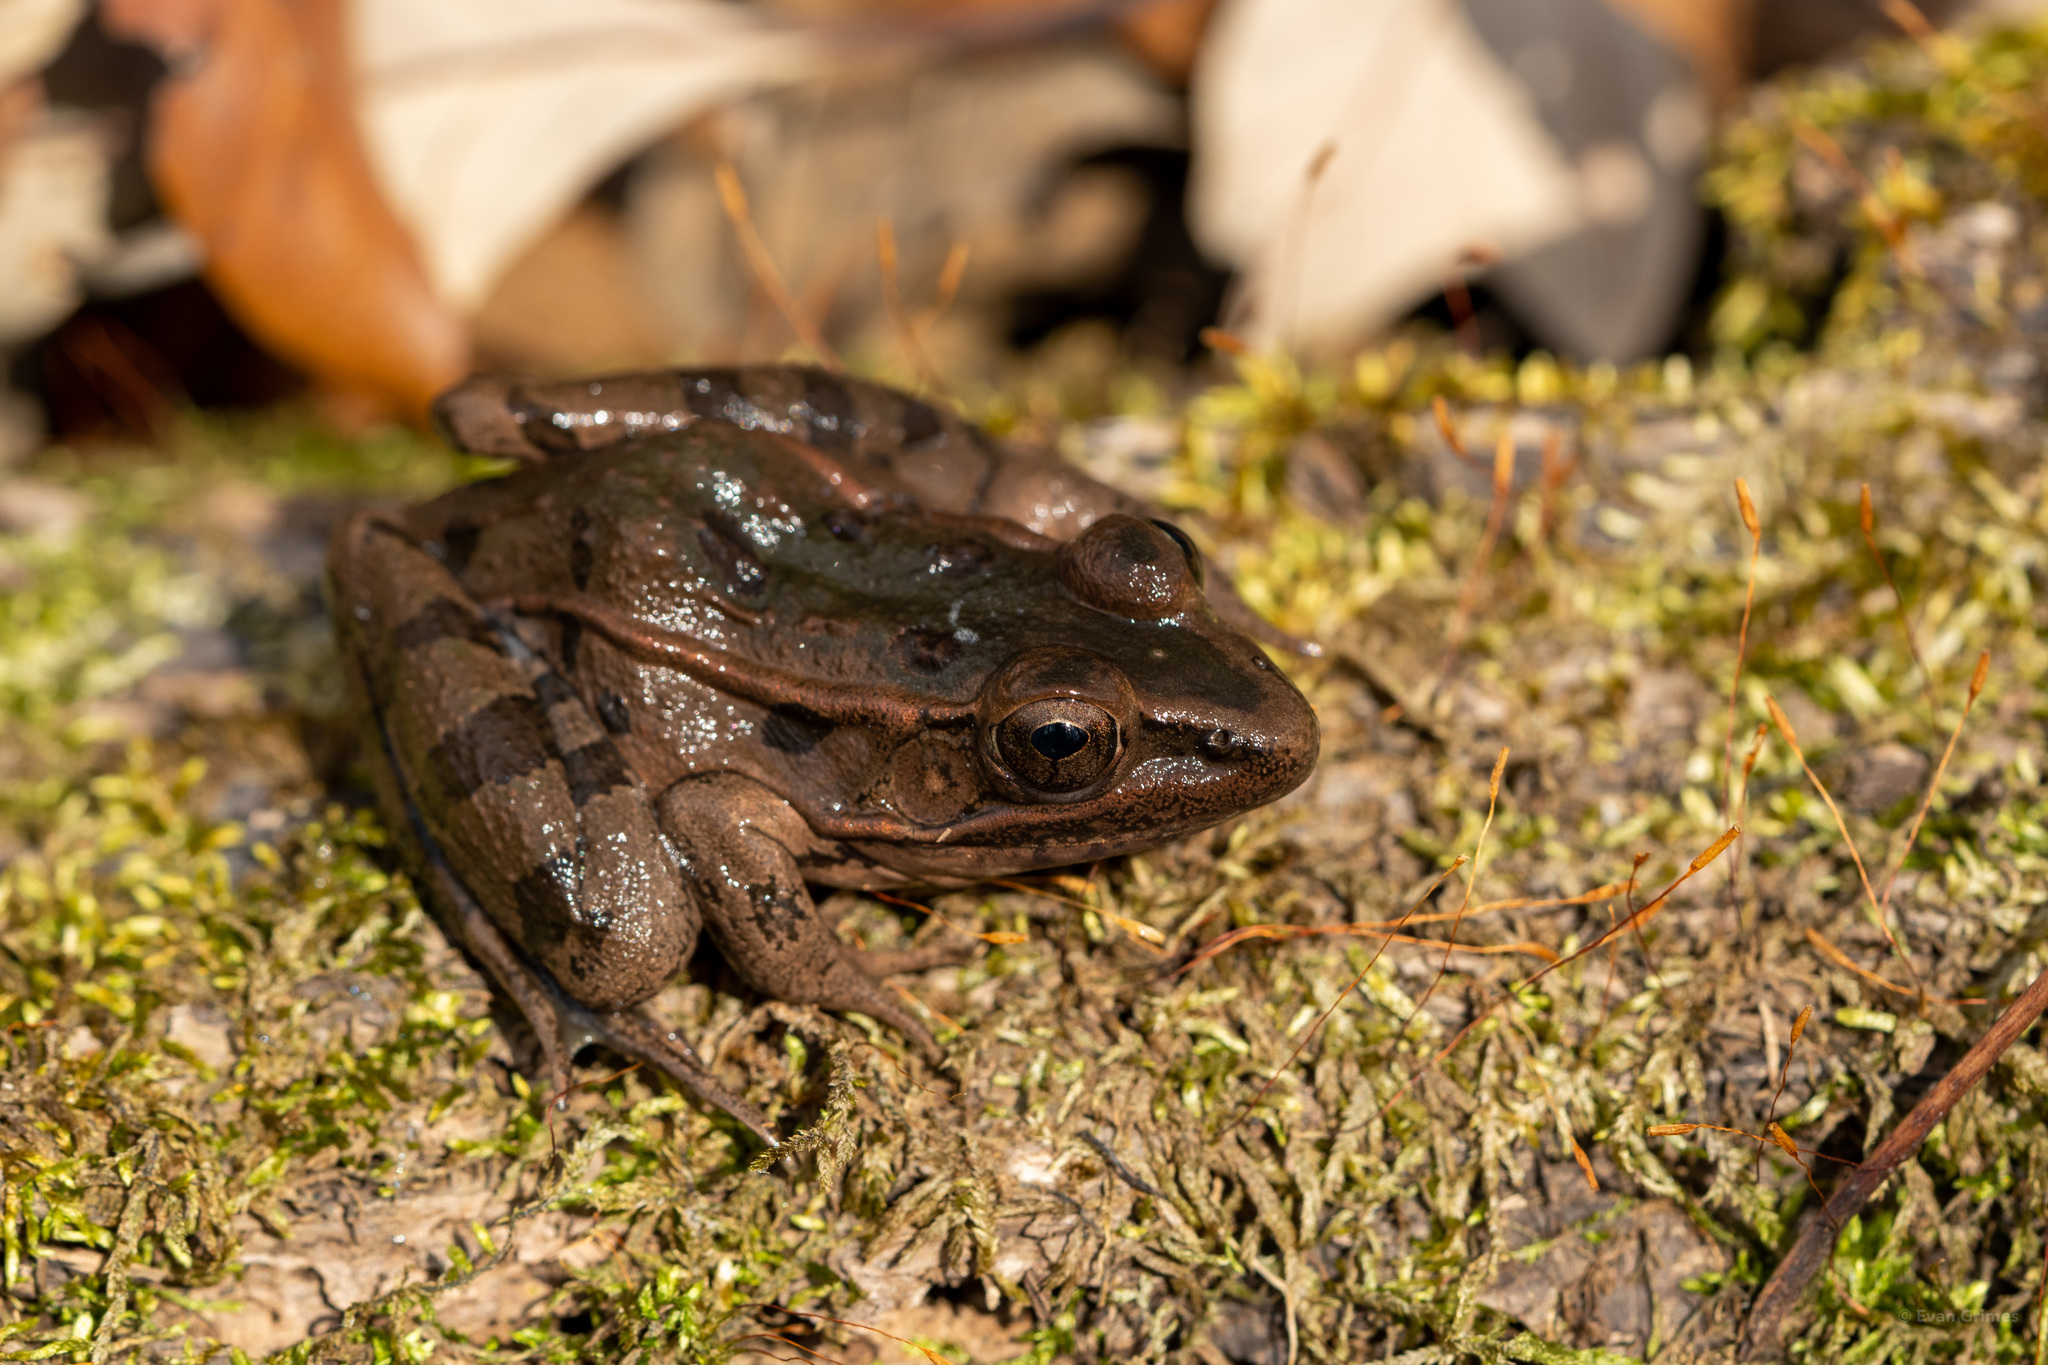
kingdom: Animalia
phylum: Chordata
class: Amphibia
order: Anura
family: Ranidae
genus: Lithobates
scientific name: Lithobates sphenocephalus
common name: Southern leopard frog
